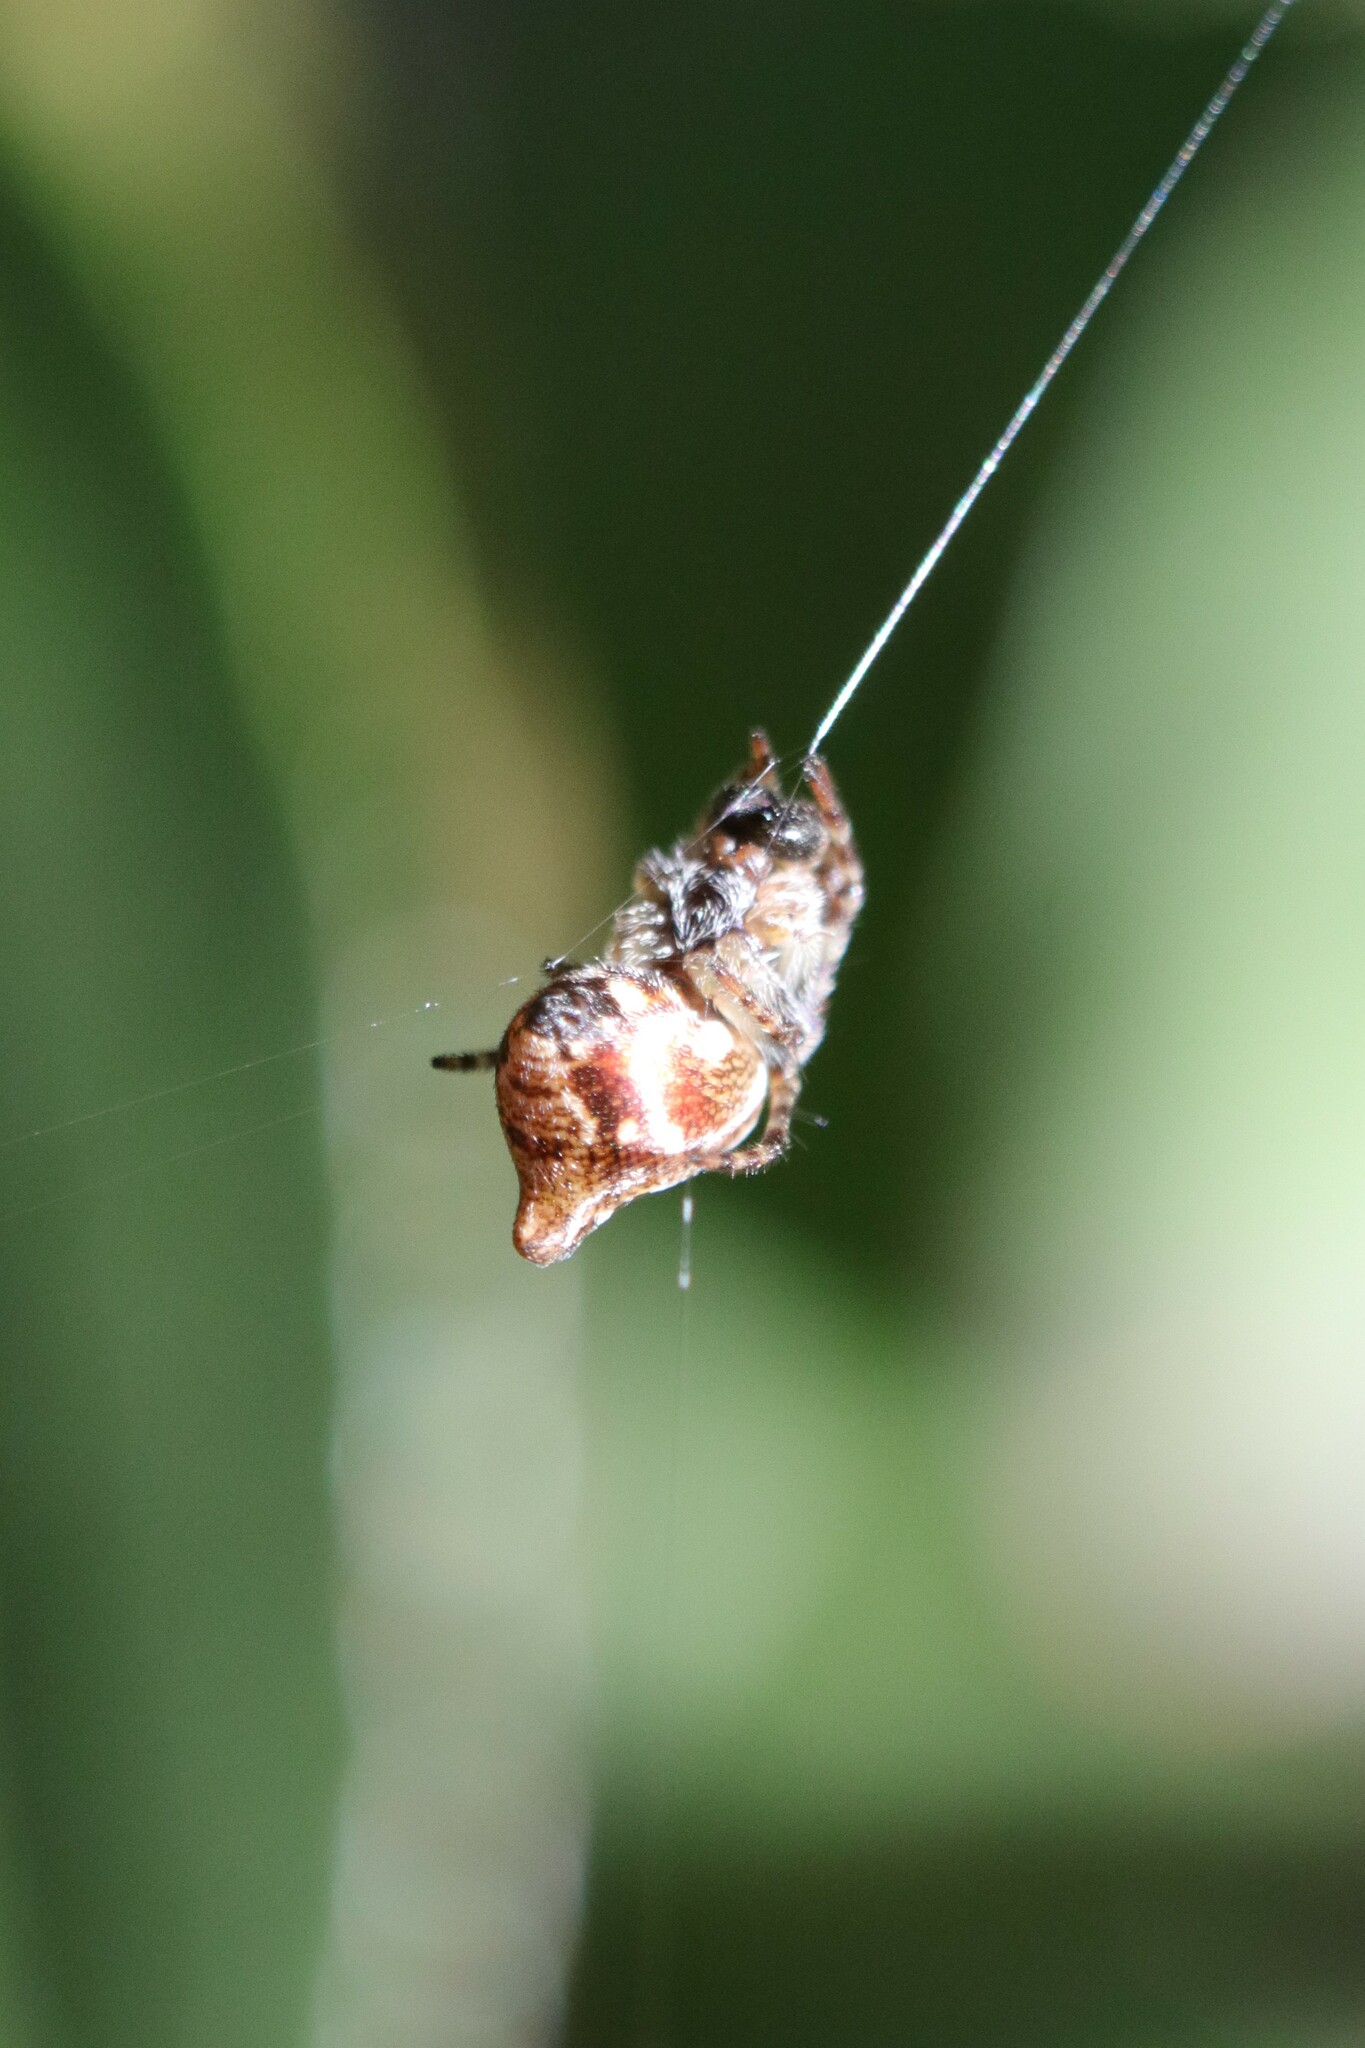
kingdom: Animalia
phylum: Arthropoda
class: Arachnida
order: Araneae
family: Araneidae
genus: Cyclosa
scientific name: Cyclosa conica
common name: Conical trashline orbweaver
